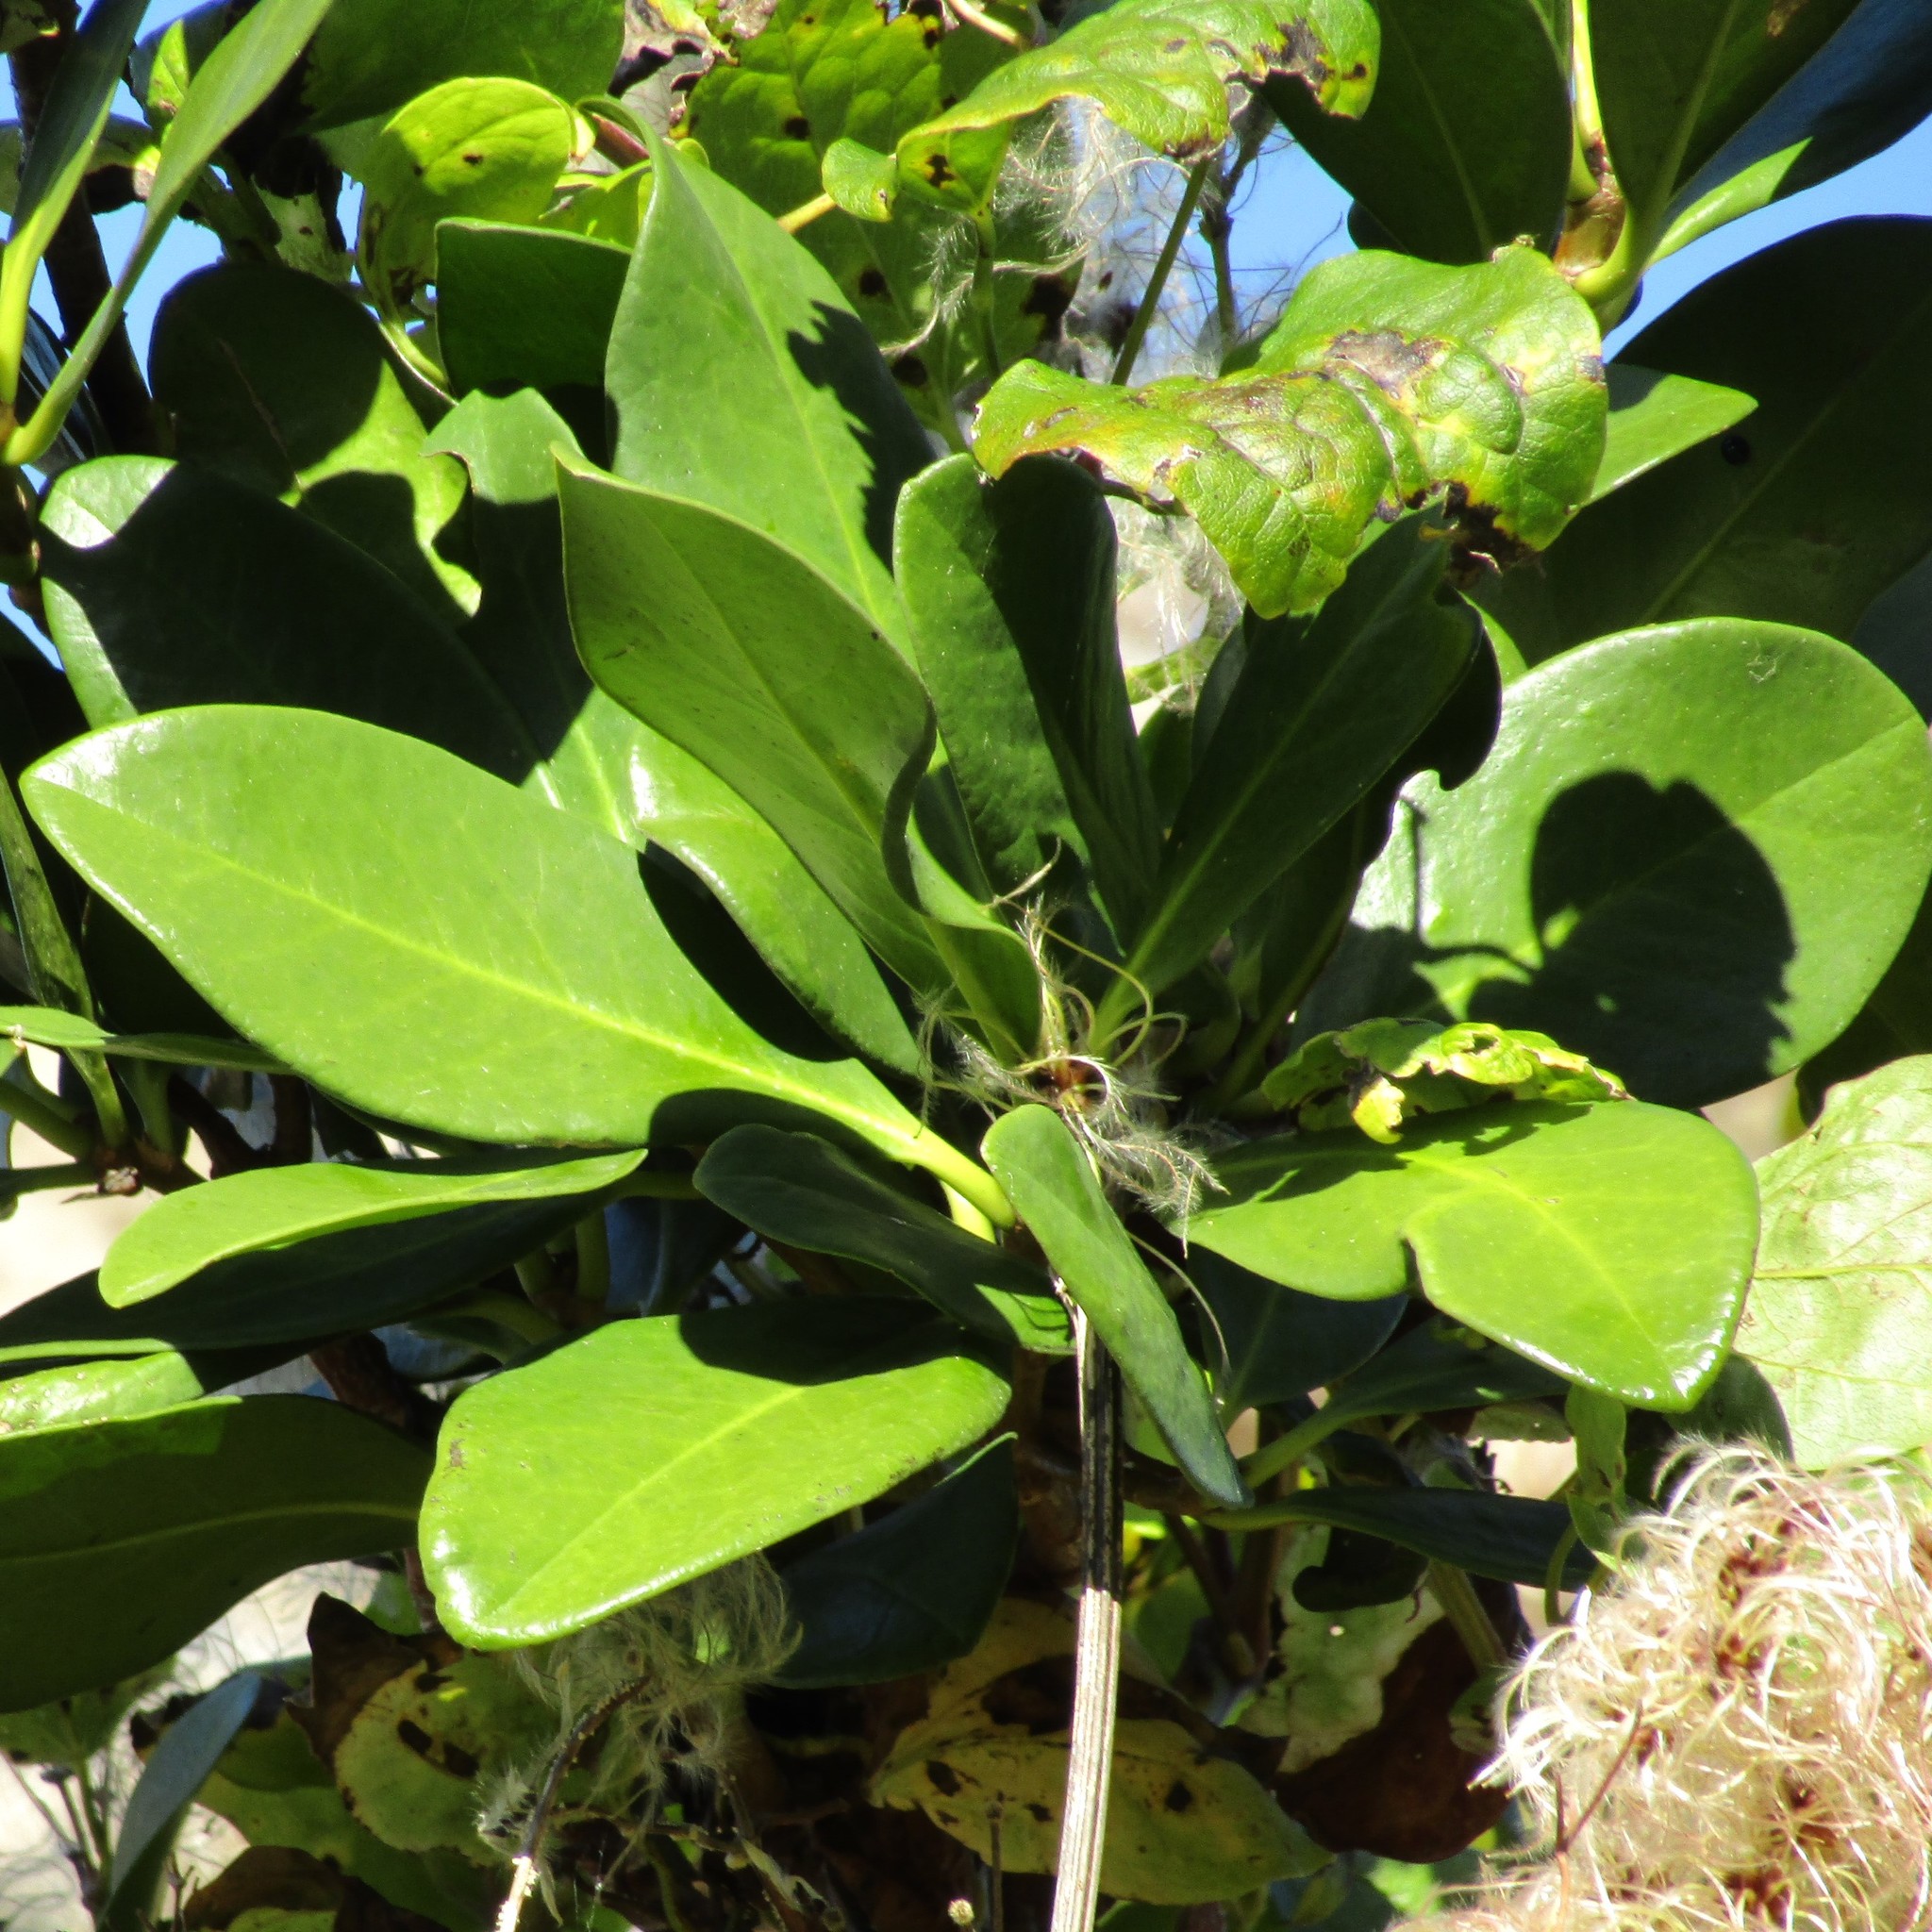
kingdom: Plantae
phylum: Tracheophyta
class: Magnoliopsida
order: Cucurbitales
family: Corynocarpaceae
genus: Corynocarpus
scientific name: Corynocarpus laevigatus
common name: New zealand laurel
